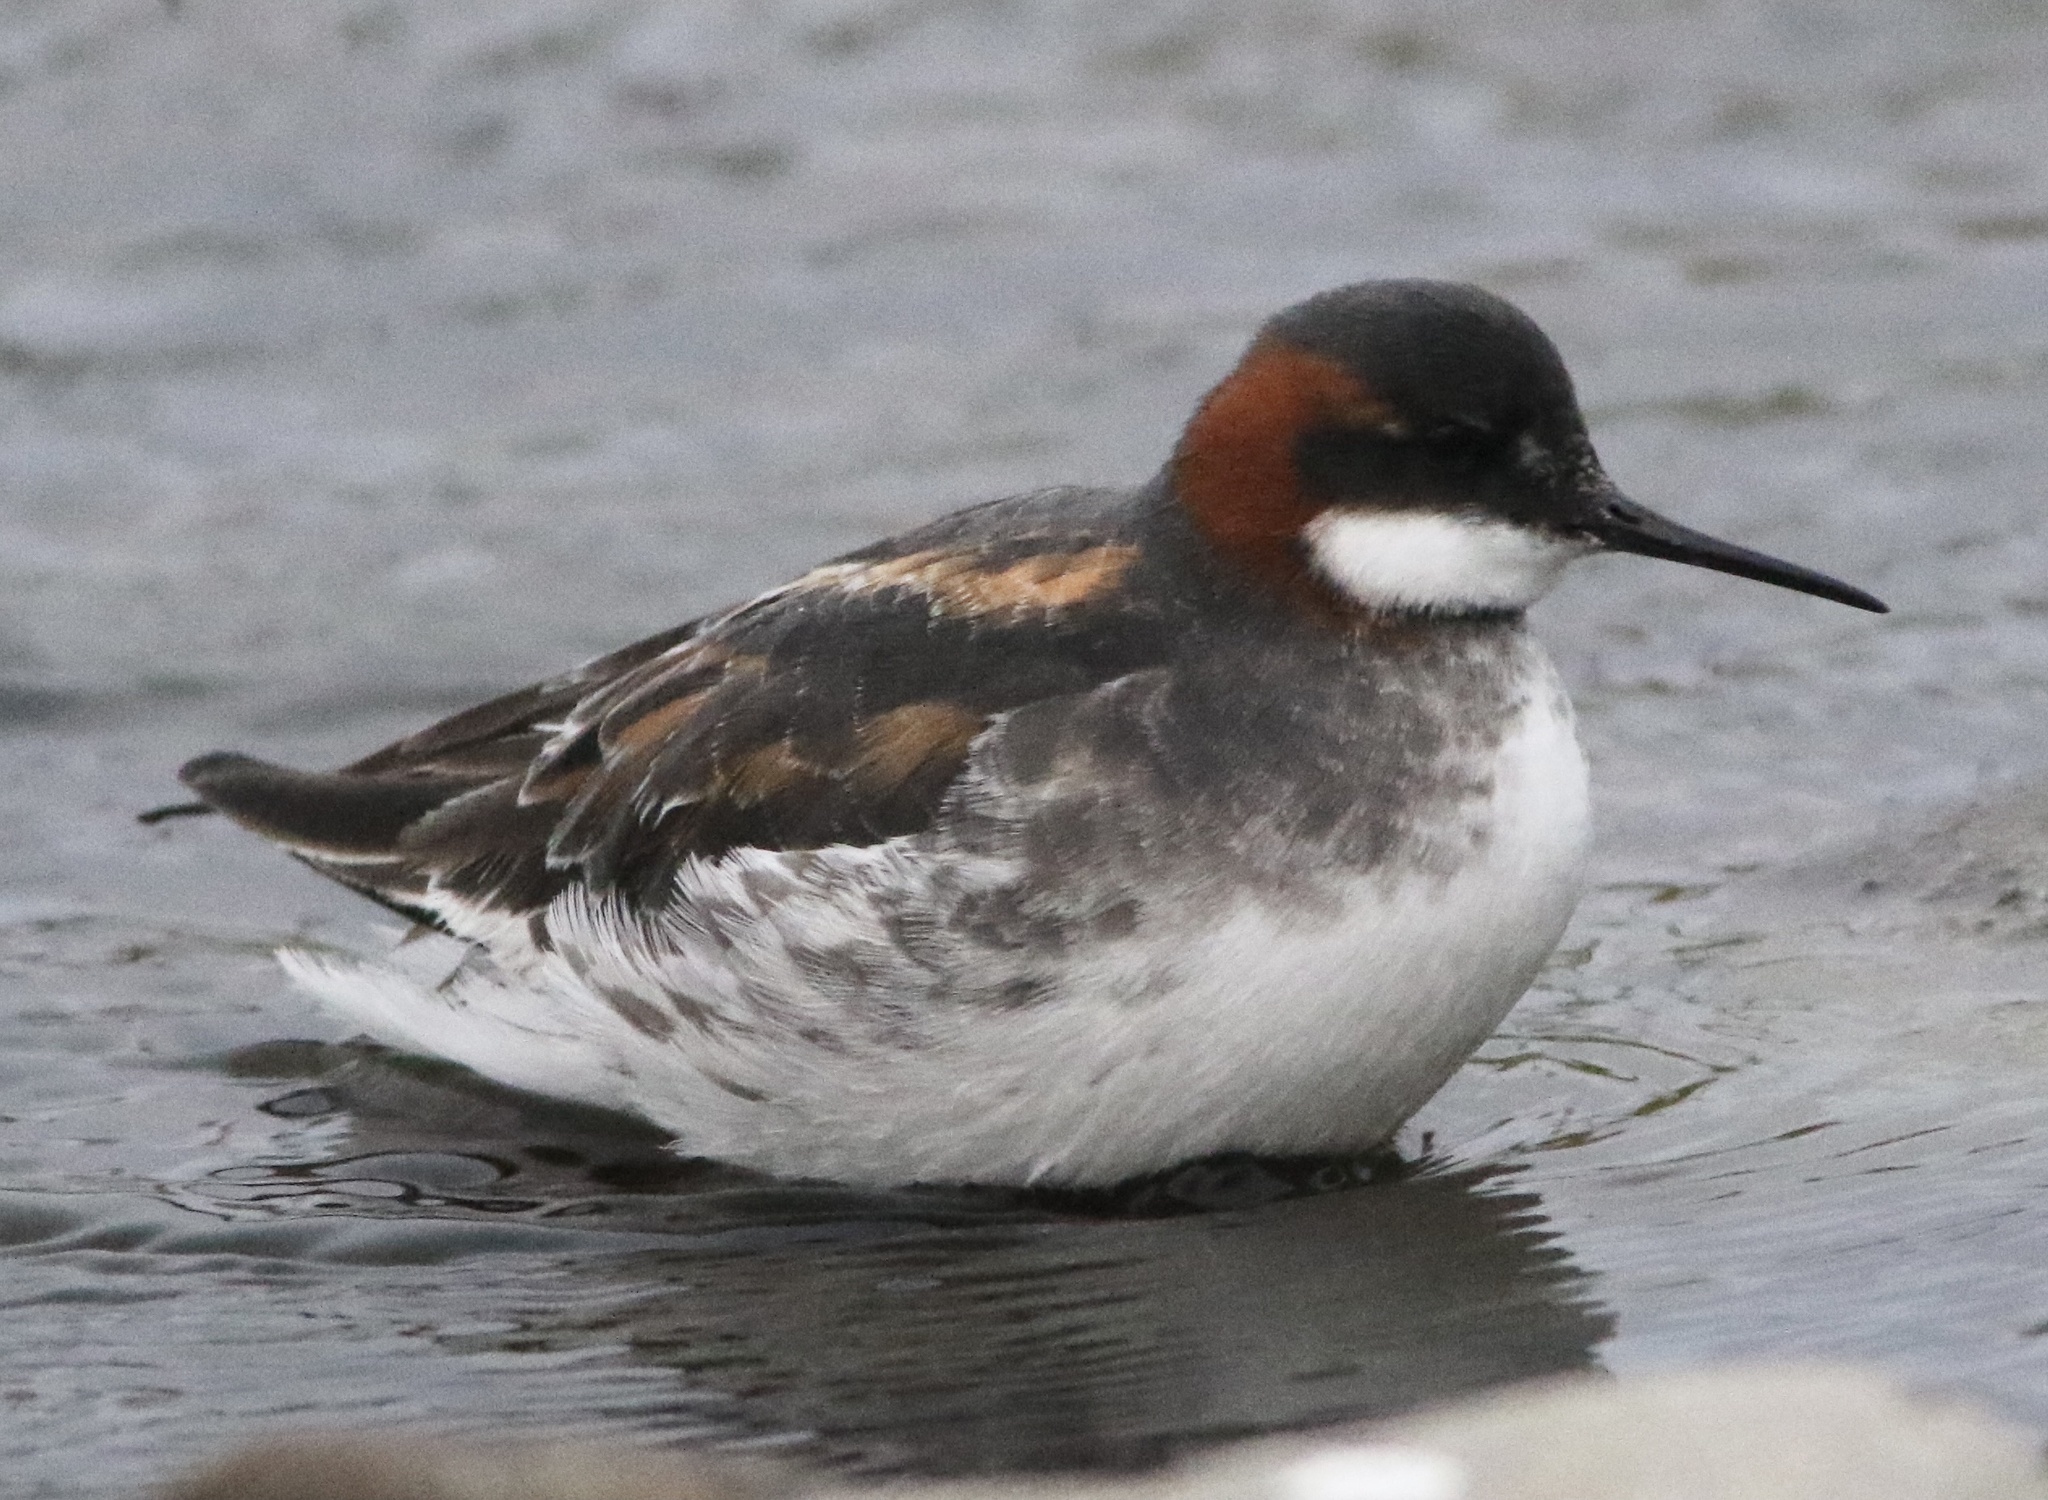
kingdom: Animalia
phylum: Chordata
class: Aves
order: Charadriiformes
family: Scolopacidae
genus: Phalaropus
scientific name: Phalaropus lobatus
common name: Red-necked phalarope
